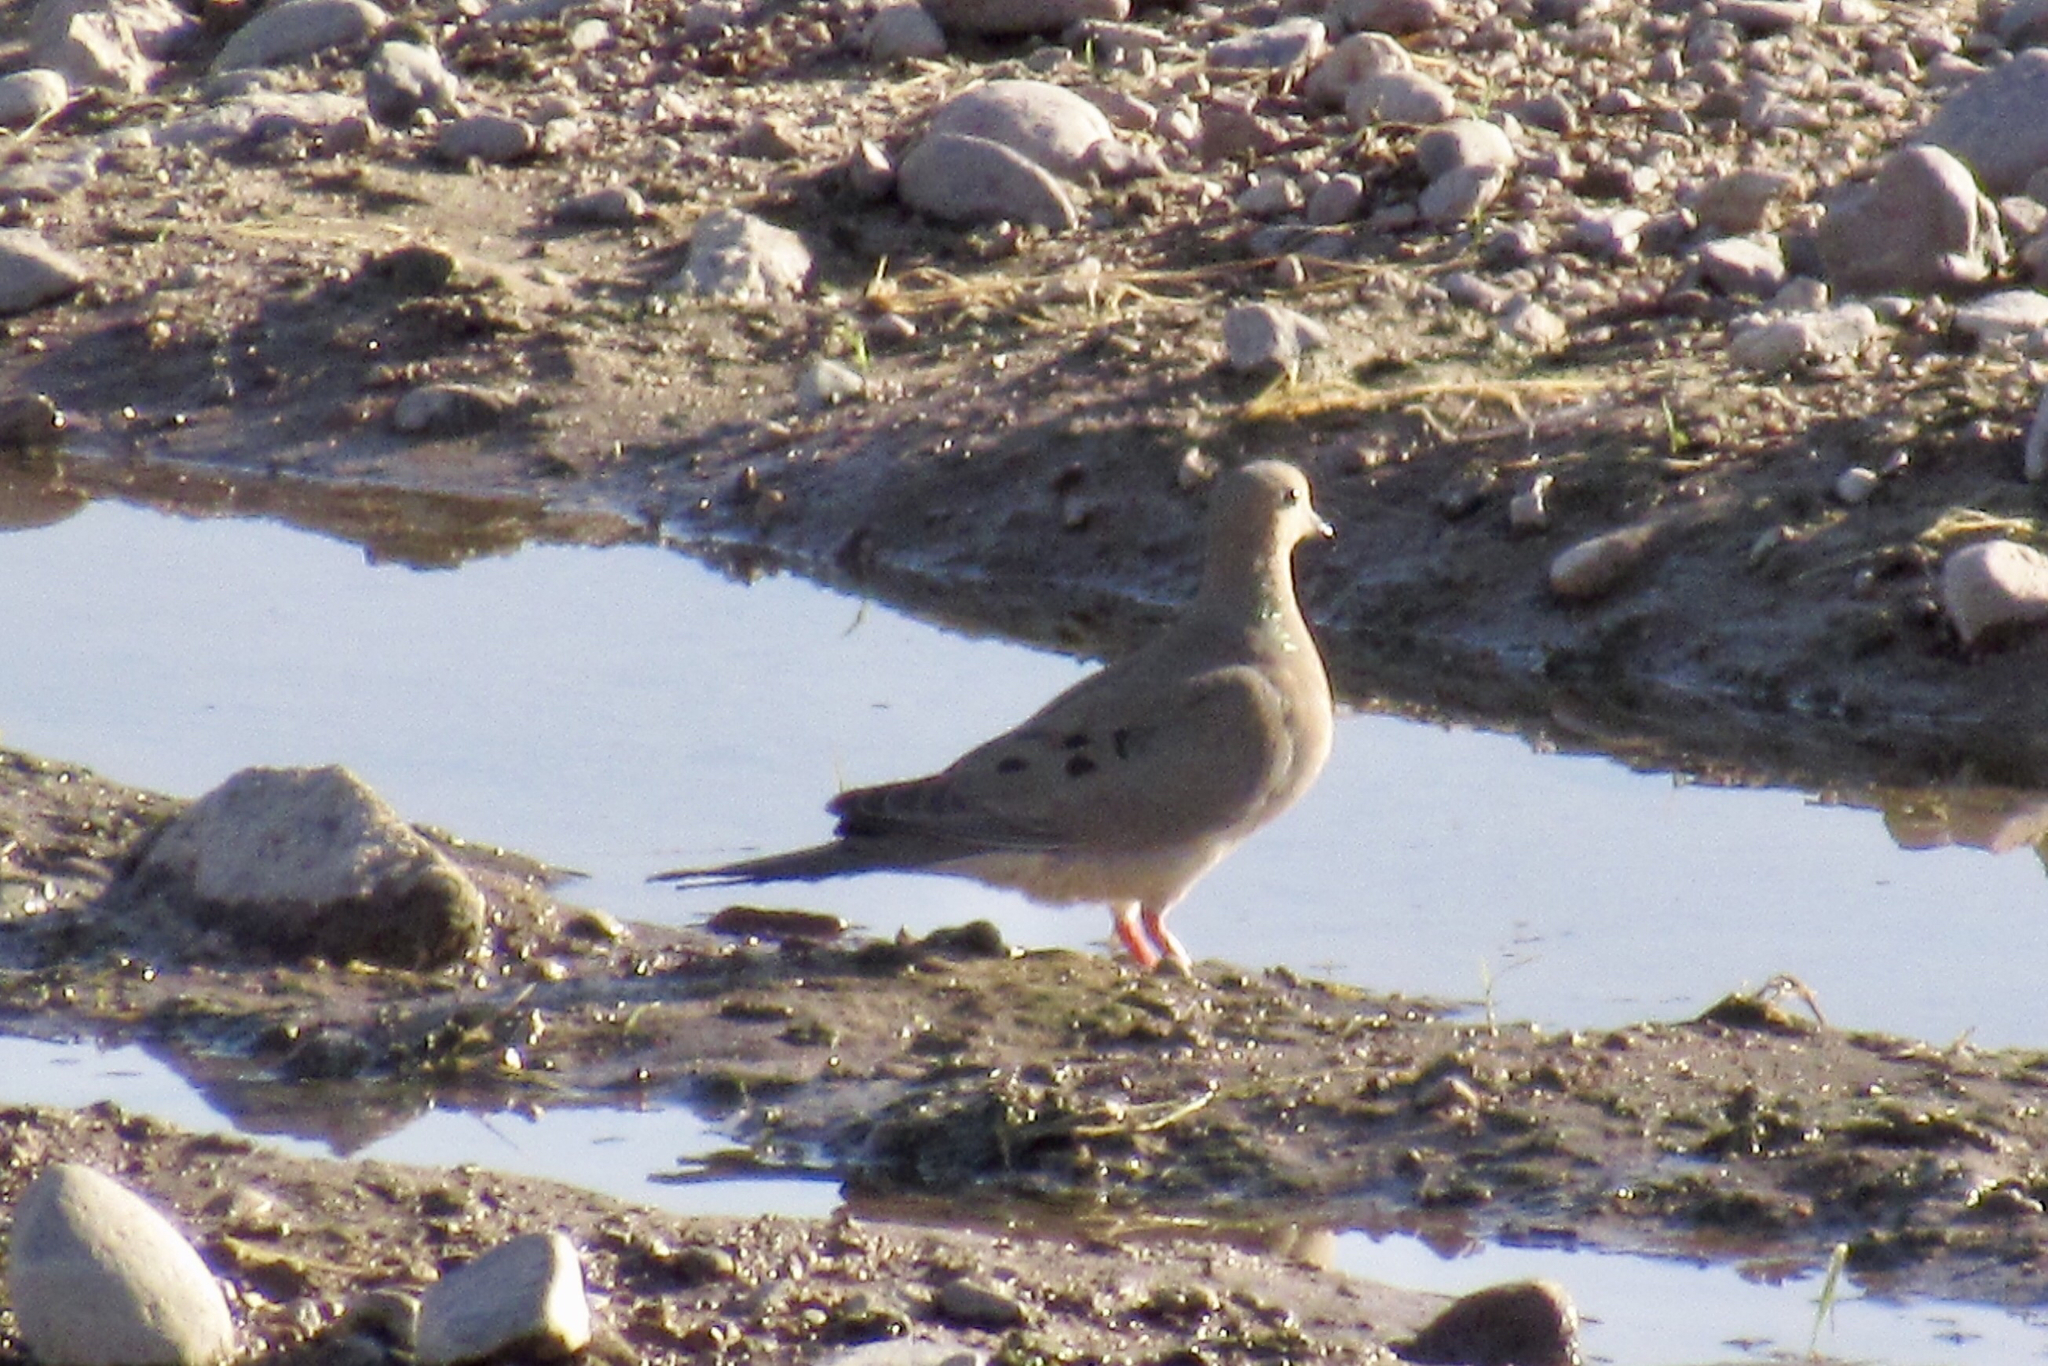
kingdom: Animalia
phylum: Chordata
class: Aves
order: Columbiformes
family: Columbidae
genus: Zenaida
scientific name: Zenaida macroura
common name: Mourning dove
